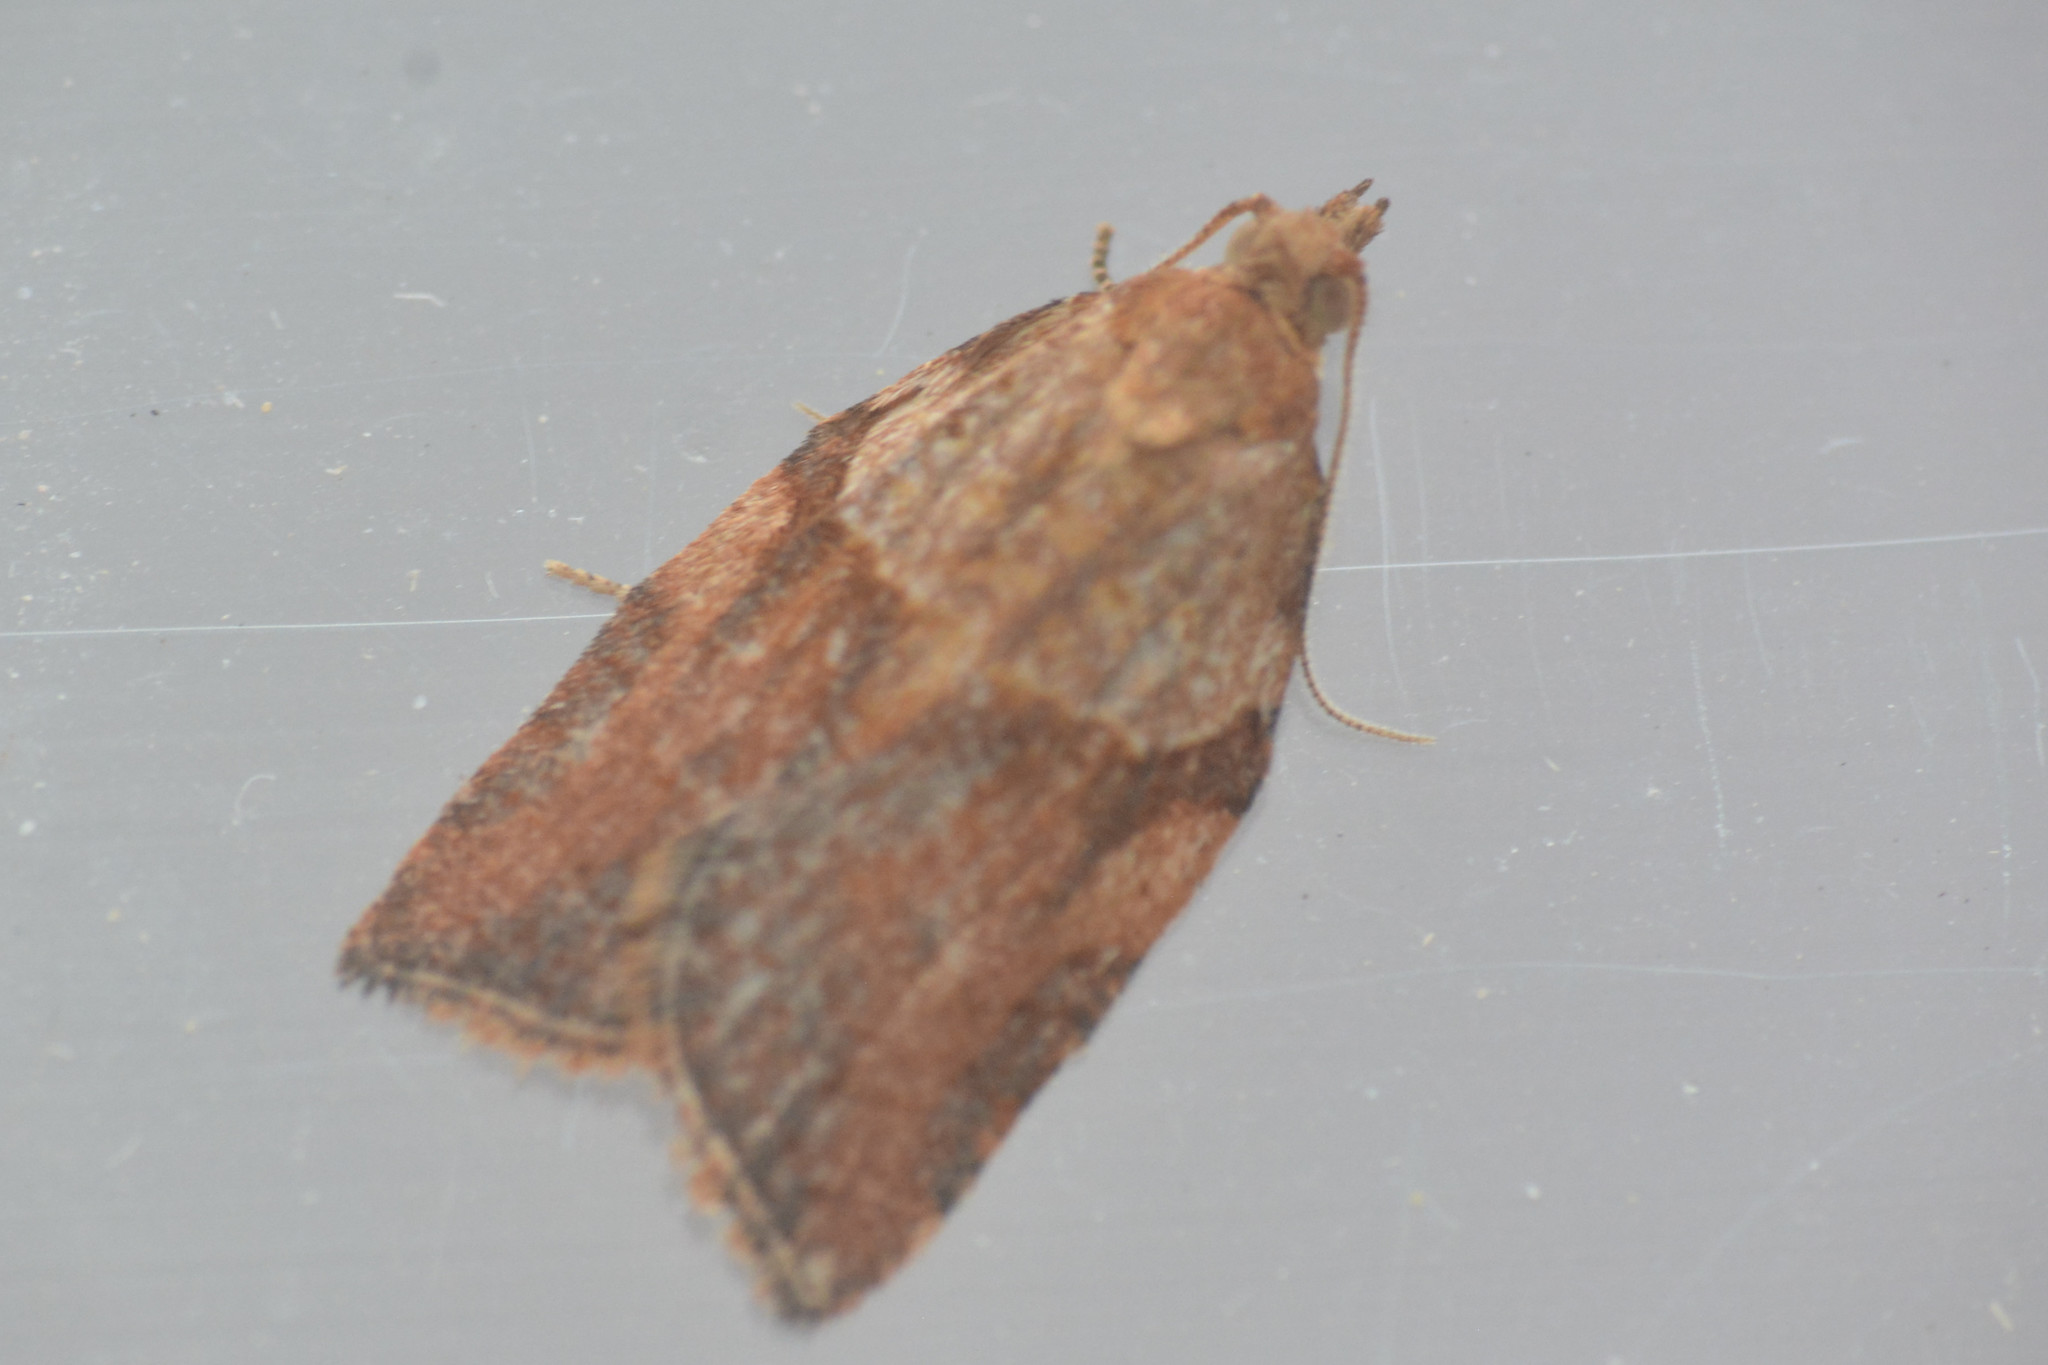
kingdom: Animalia
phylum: Arthropoda
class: Insecta
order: Lepidoptera
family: Tortricidae
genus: Epiphyas
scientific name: Epiphyas postvittana
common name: Light brown apple moth
